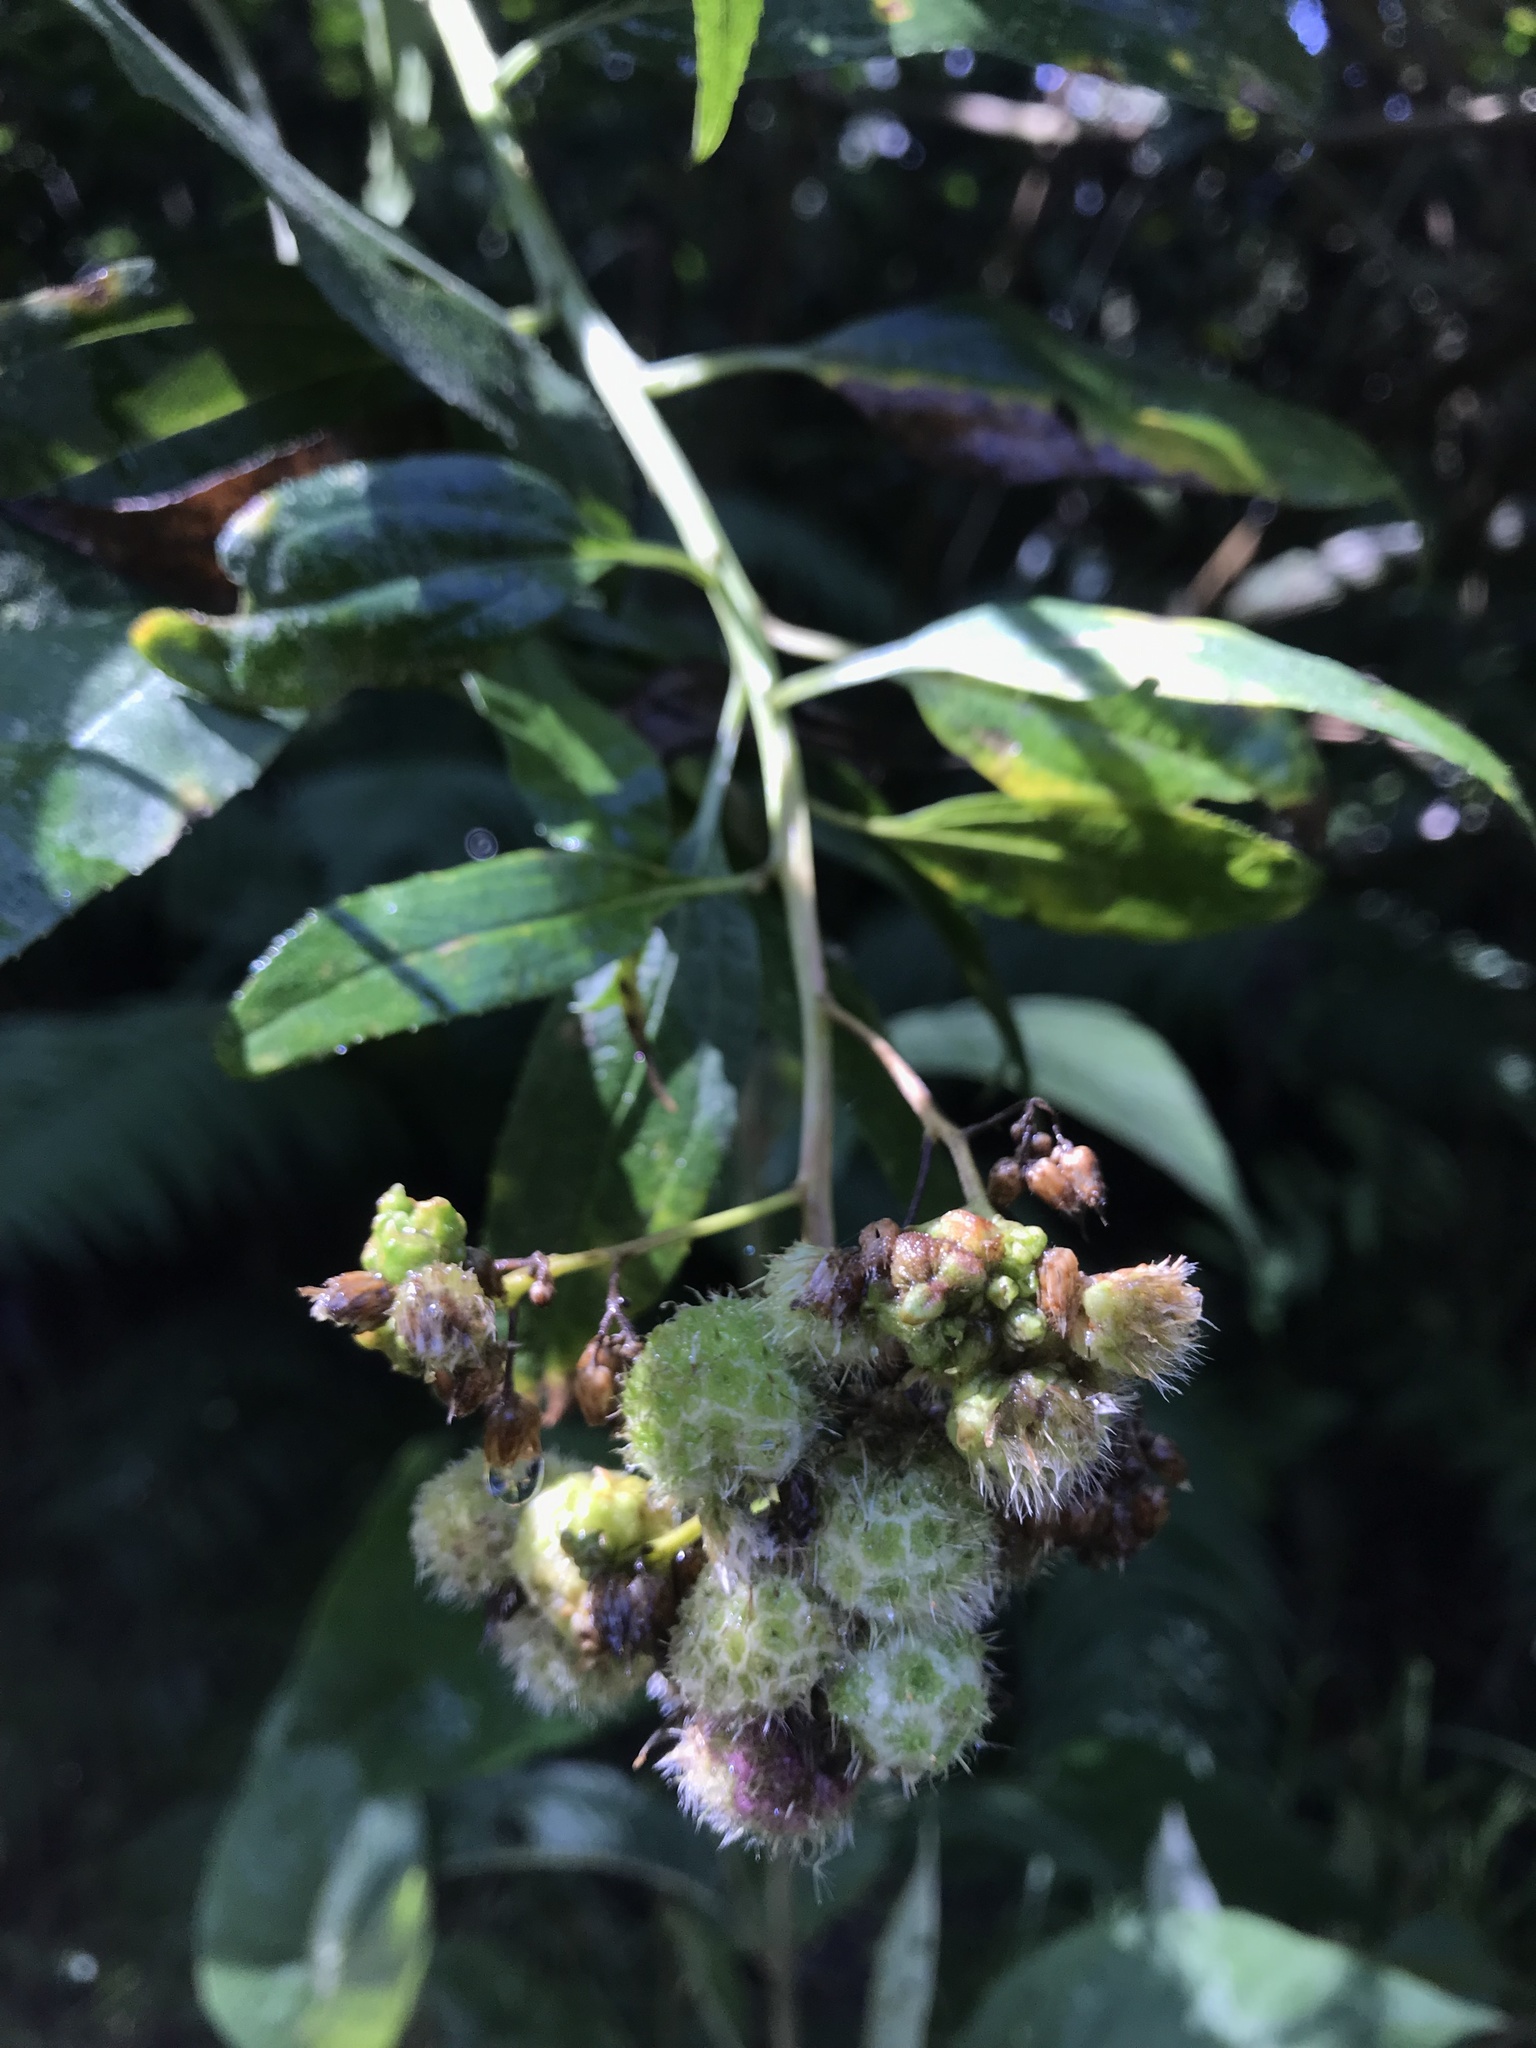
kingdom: Plantae
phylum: Tracheophyta
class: Magnoliopsida
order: Asterales
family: Asteraceae
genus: Baccharis
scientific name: Baccharis latifolia
